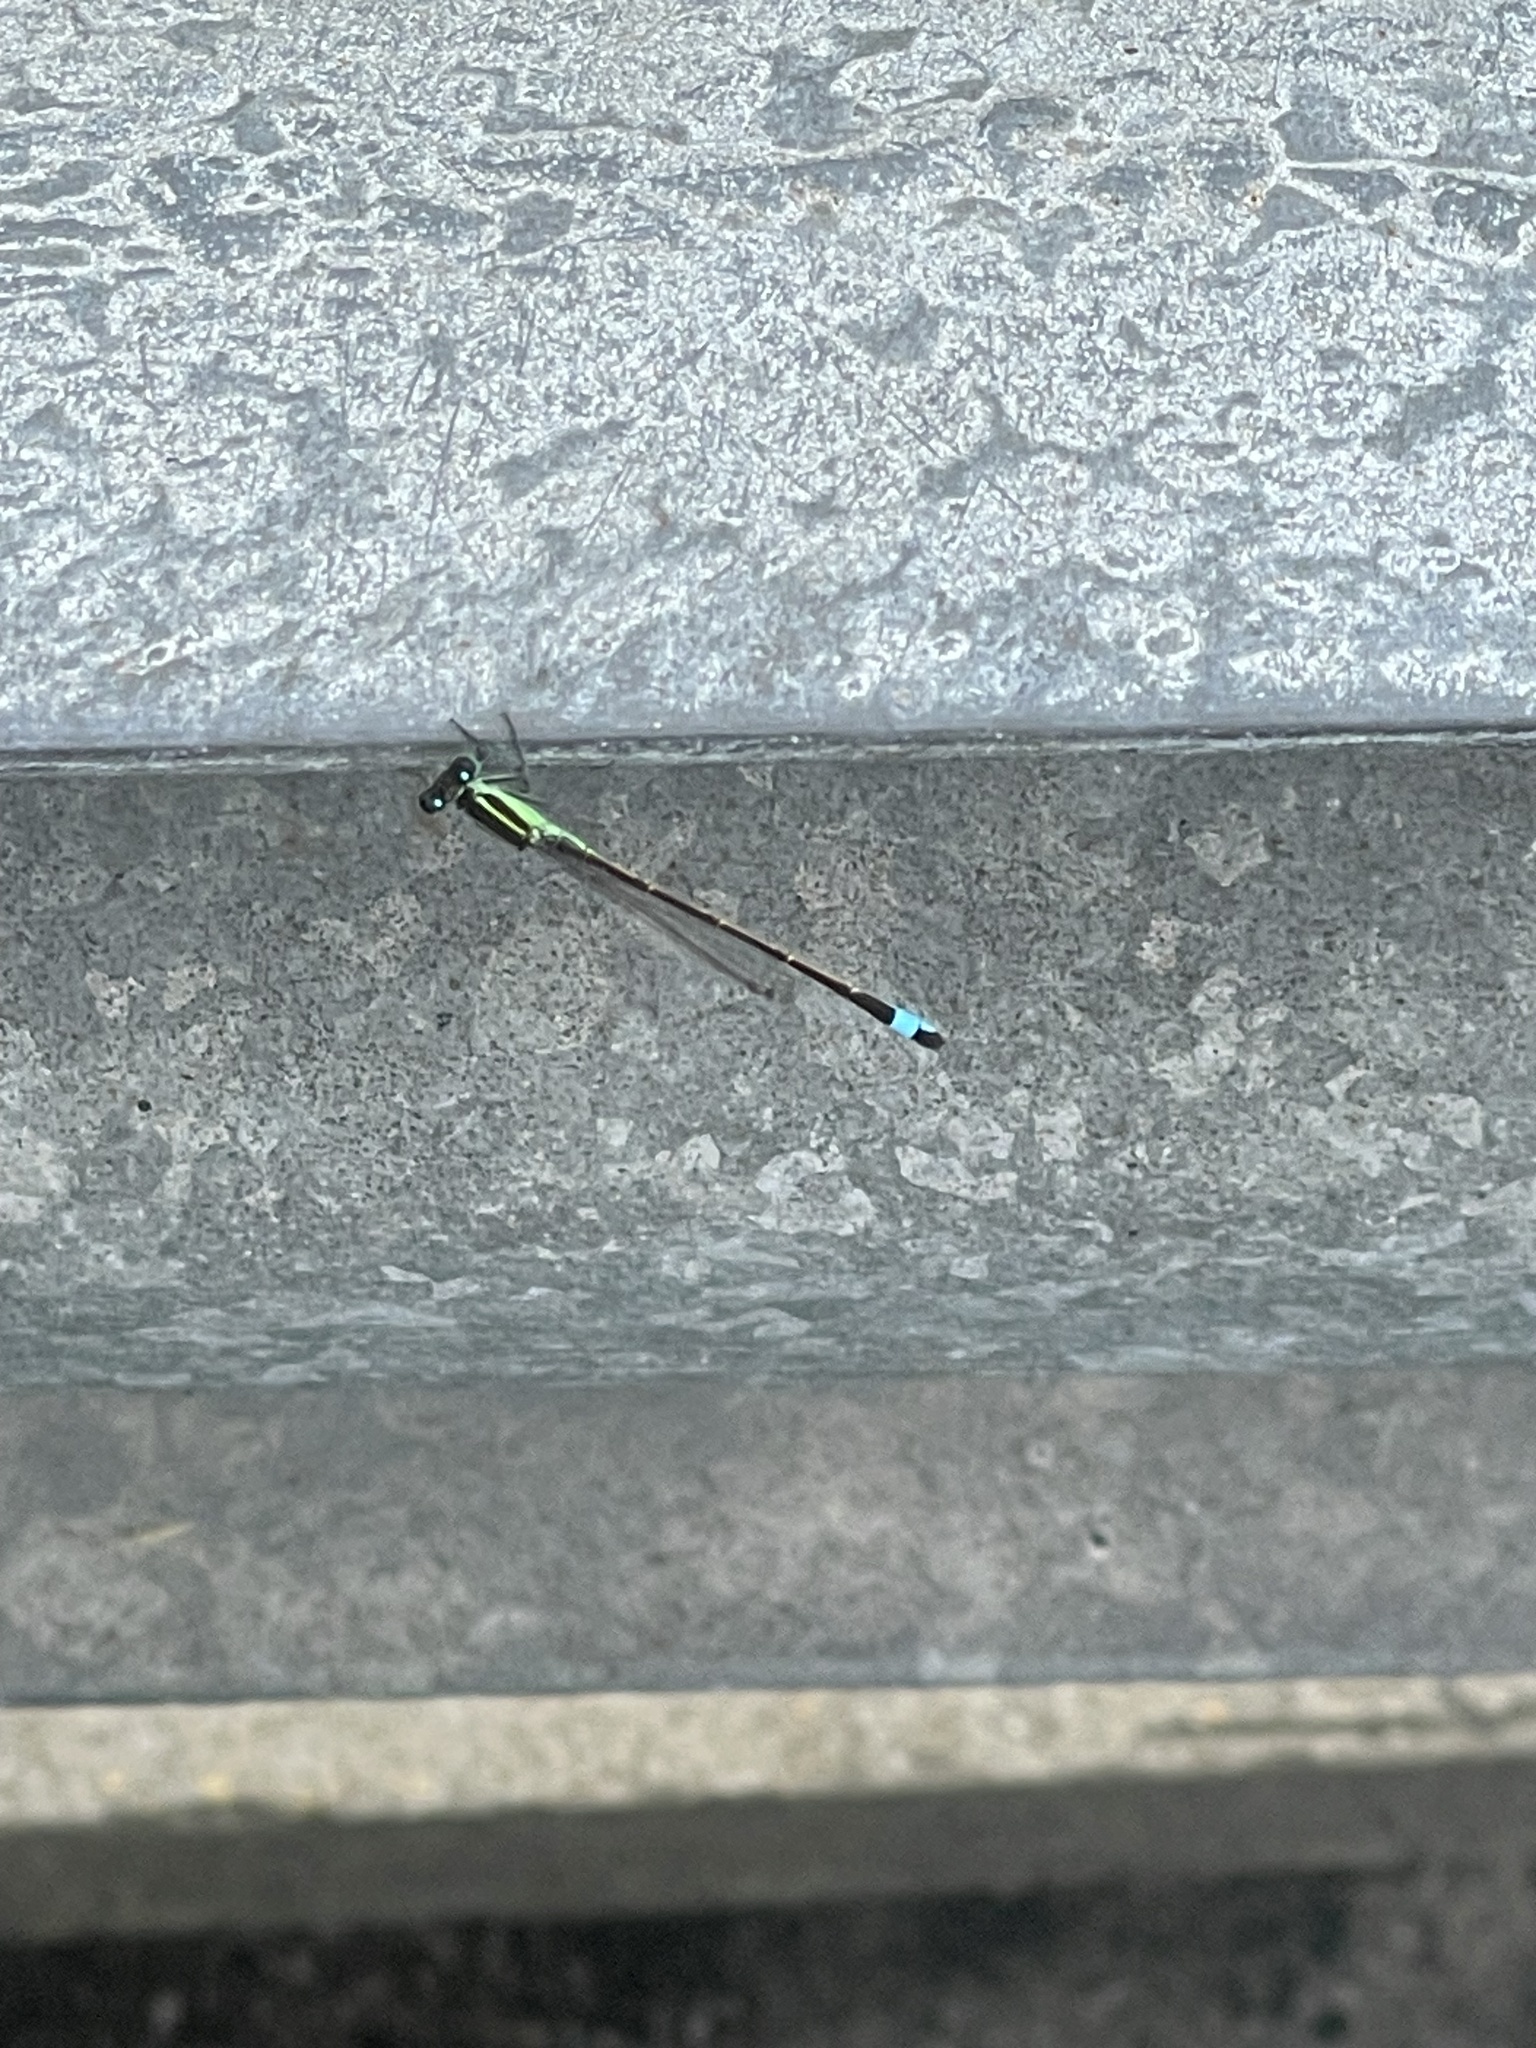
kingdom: Animalia
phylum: Arthropoda
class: Insecta
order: Odonata
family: Coenagrionidae
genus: Ischnura
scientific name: Ischnura ramburii
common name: Rambur's forktail
